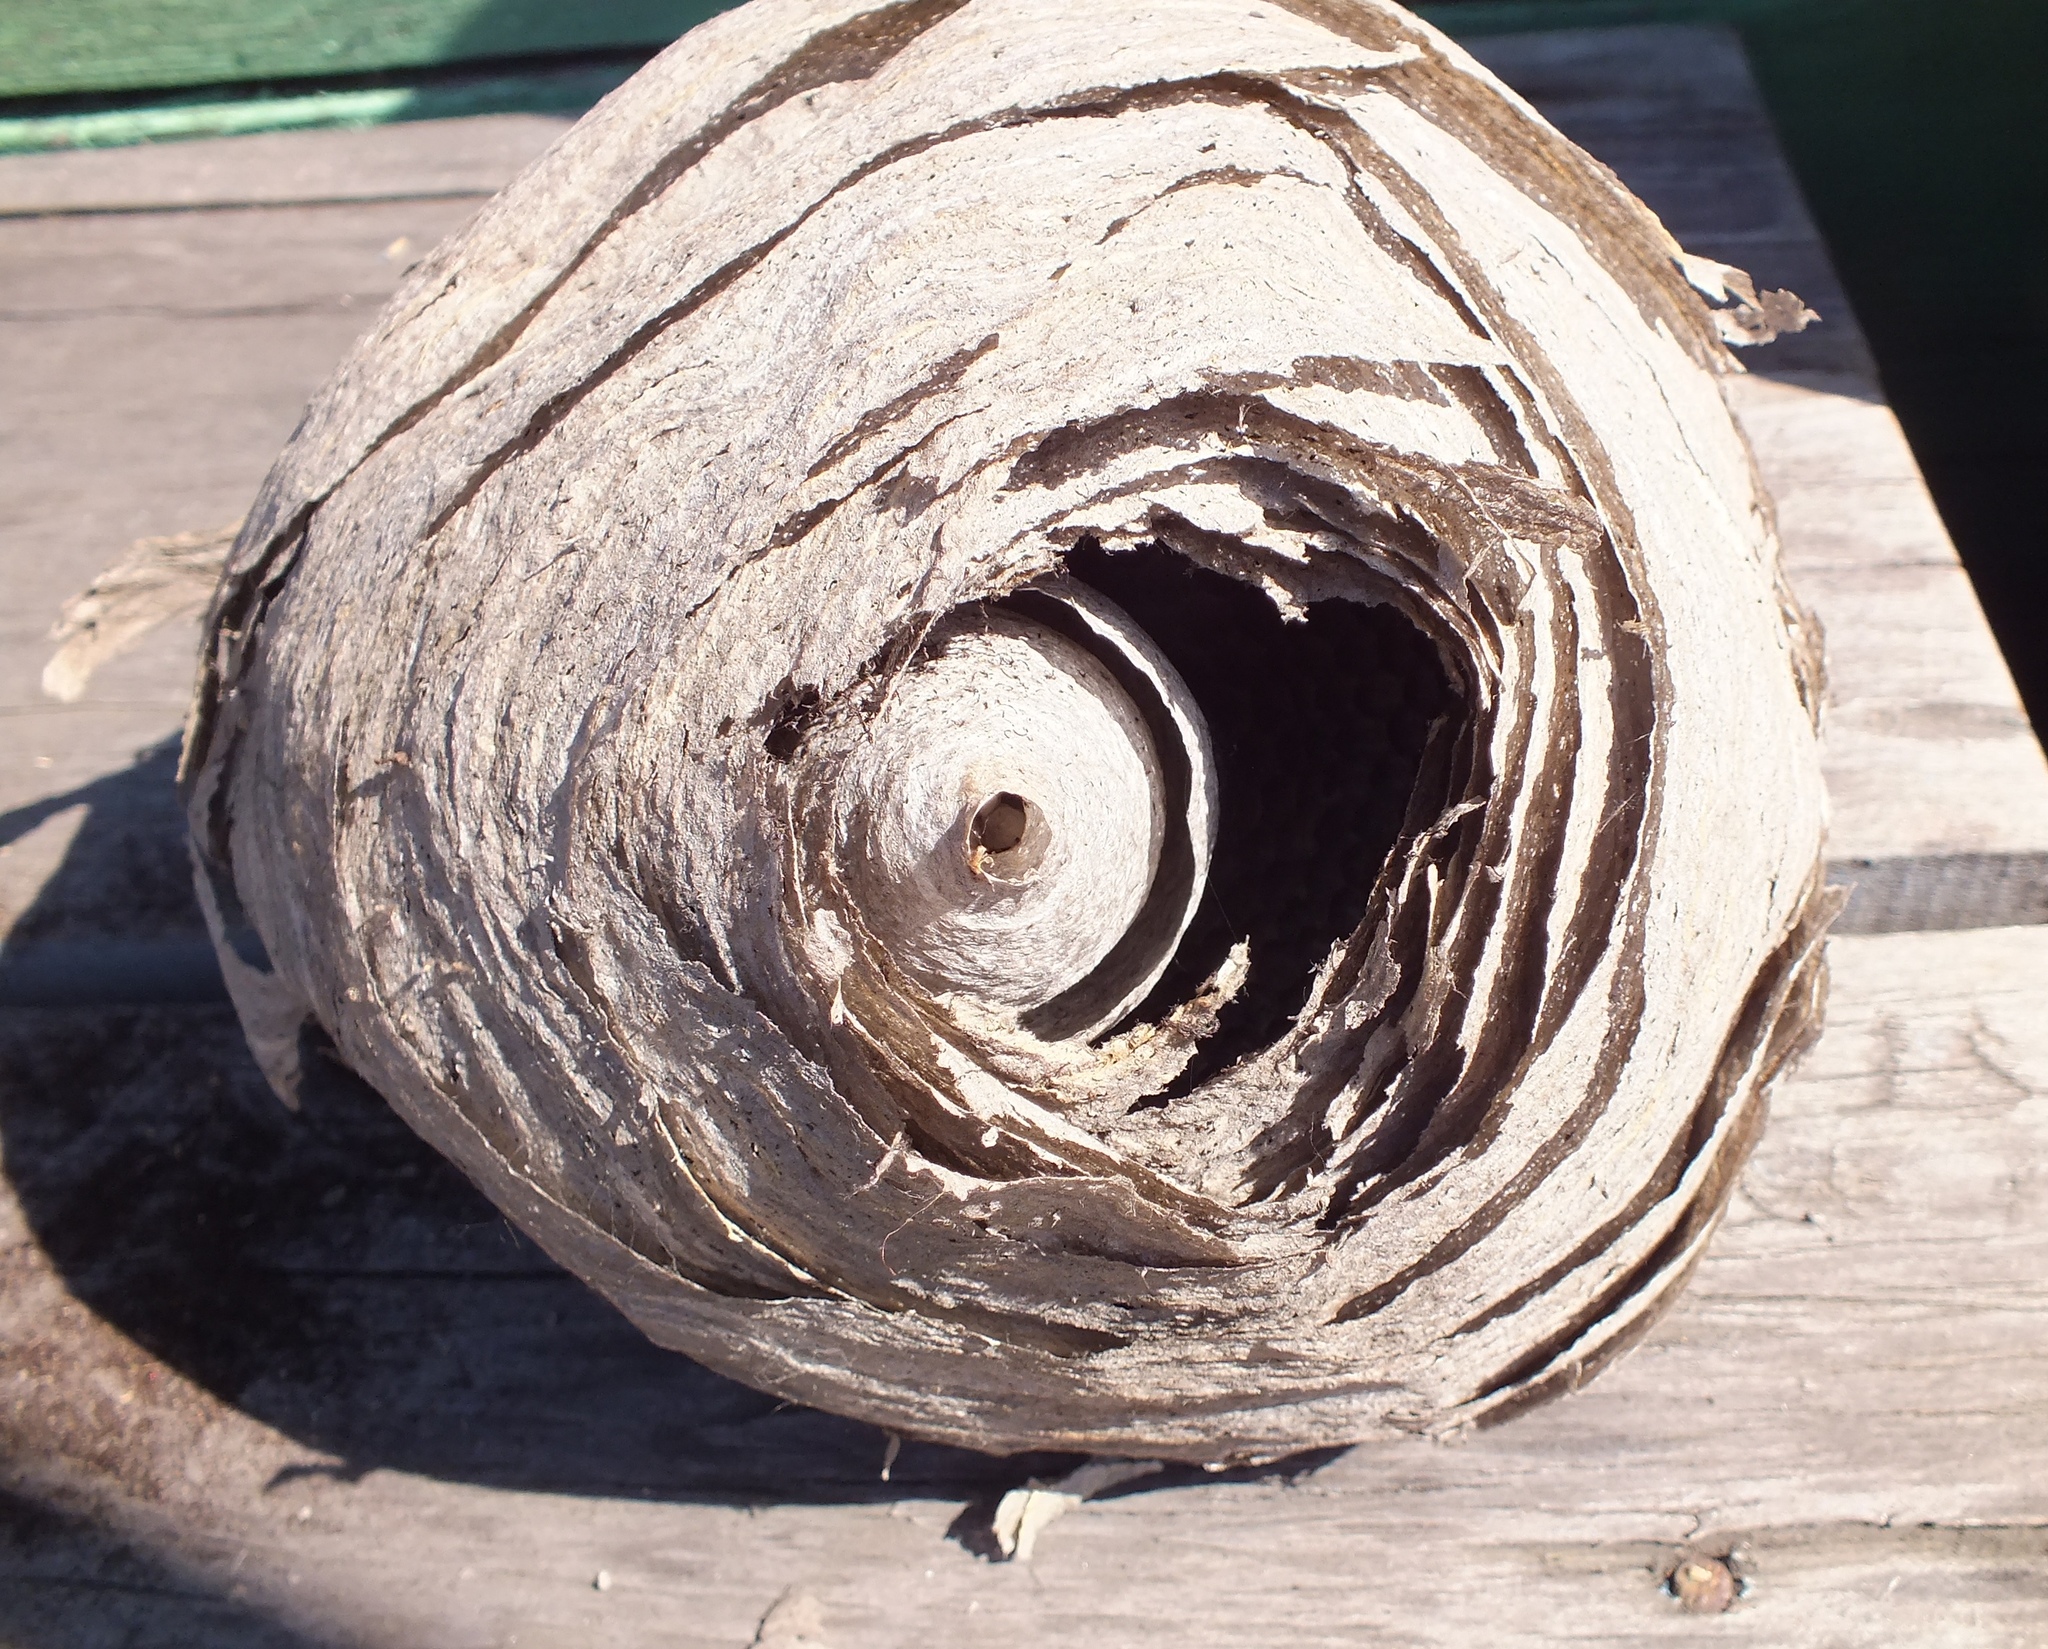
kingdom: Animalia
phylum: Arthropoda
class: Insecta
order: Hymenoptera
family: Vespidae
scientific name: Vespidae
